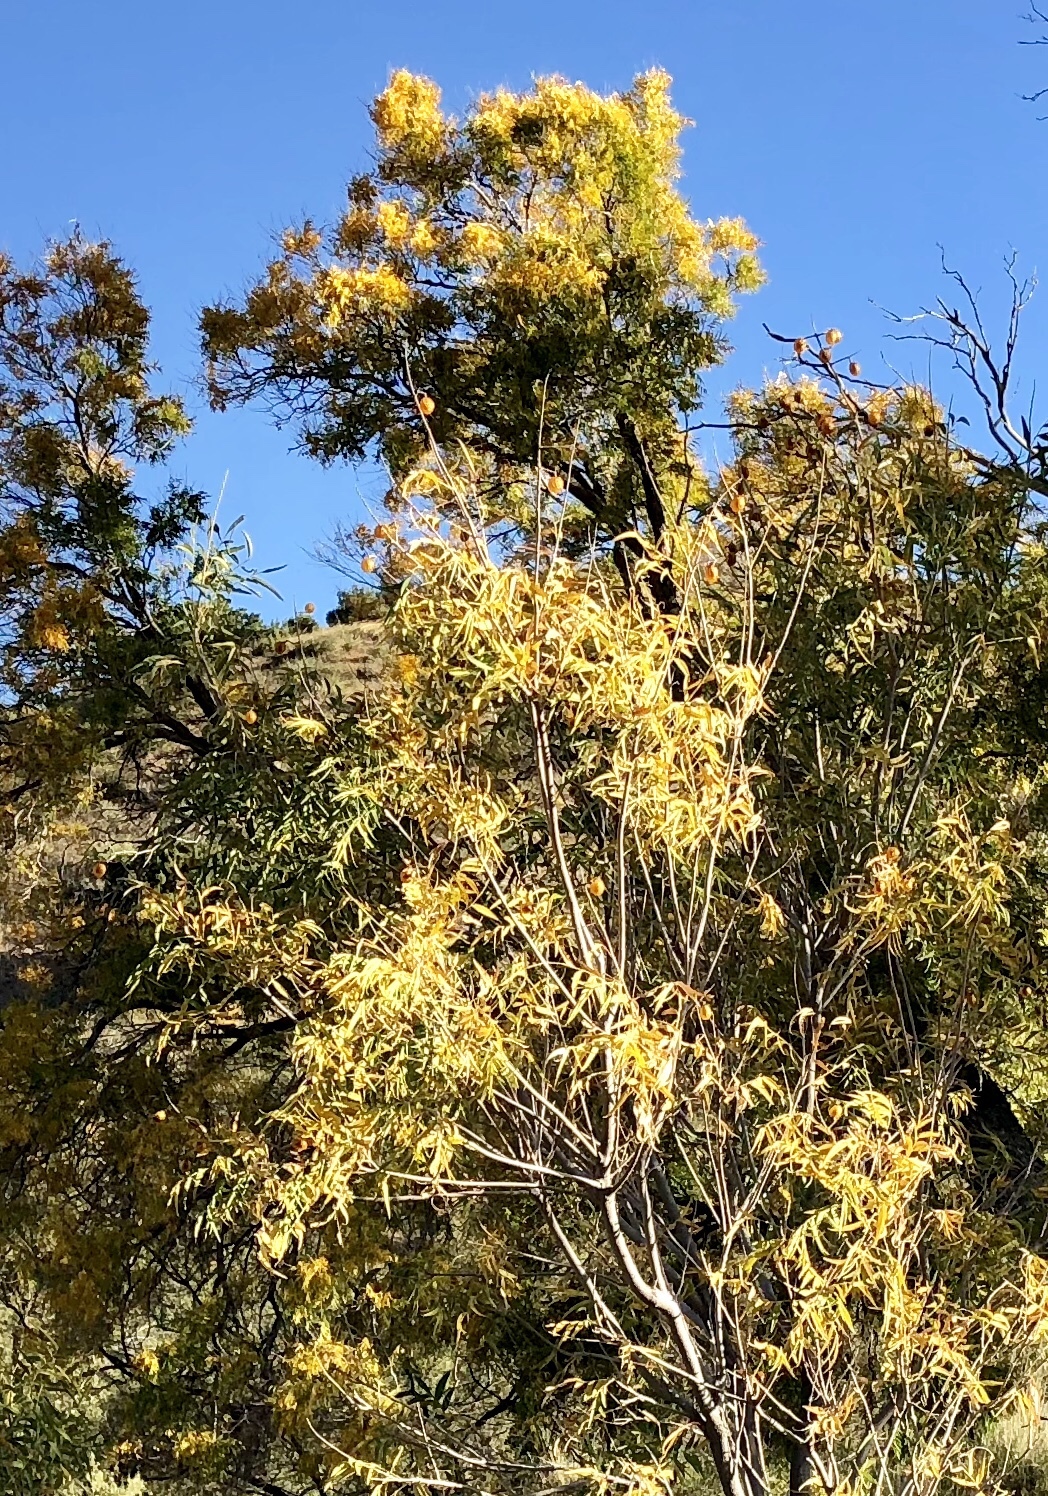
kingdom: Plantae
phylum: Tracheophyta
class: Magnoliopsida
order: Sapindales
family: Sapindaceae
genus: Sapindus
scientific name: Sapindus drummondii
